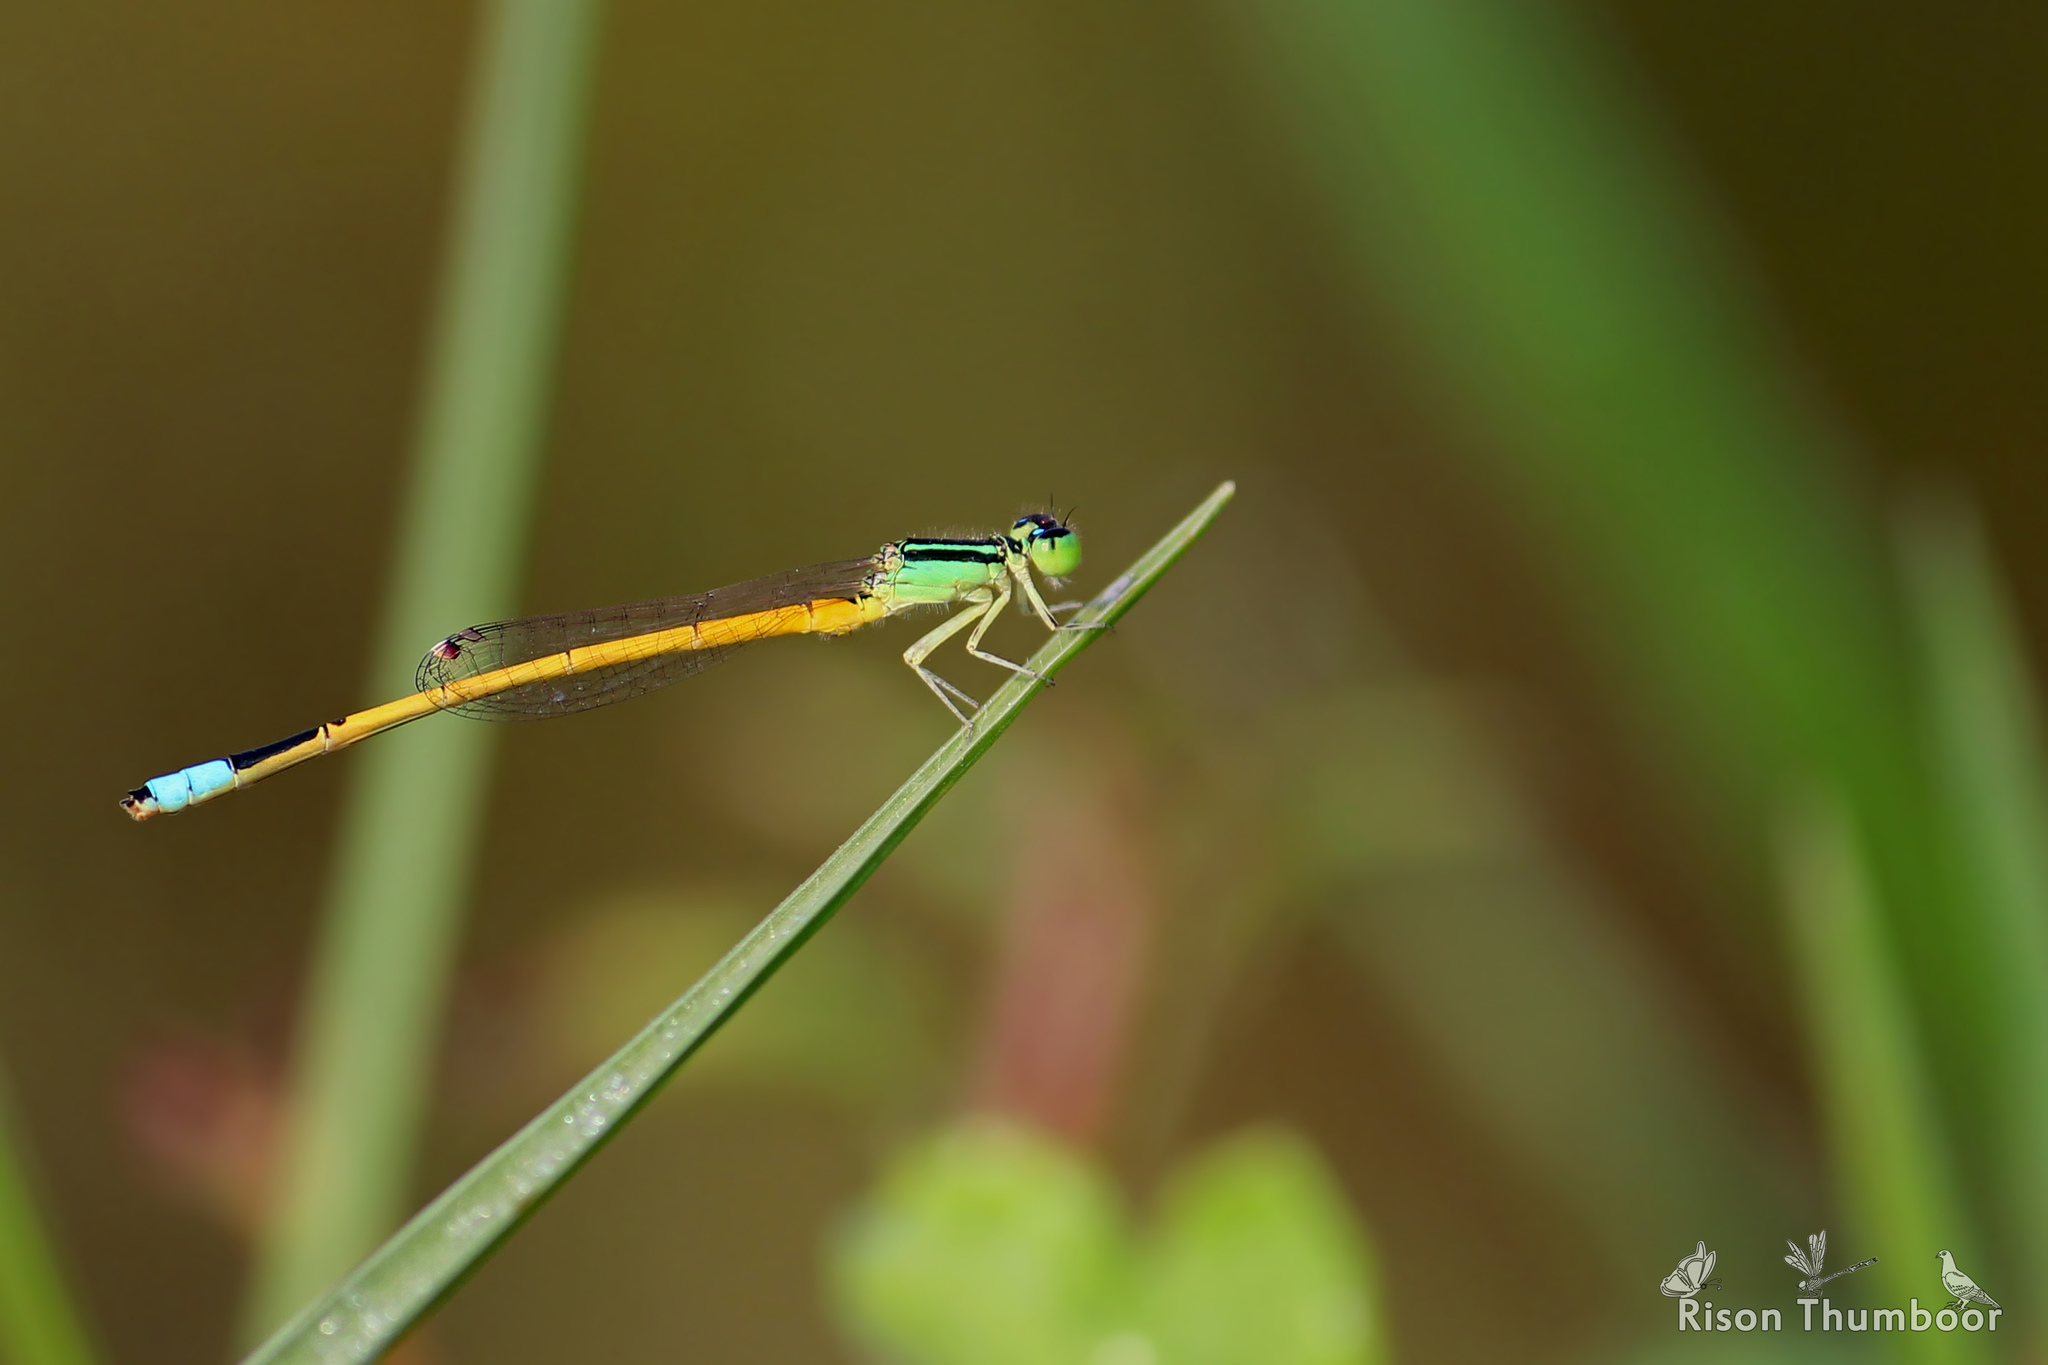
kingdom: Animalia
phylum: Arthropoda
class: Insecta
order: Odonata
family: Coenagrionidae
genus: Ischnura
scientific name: Ischnura rubilio
